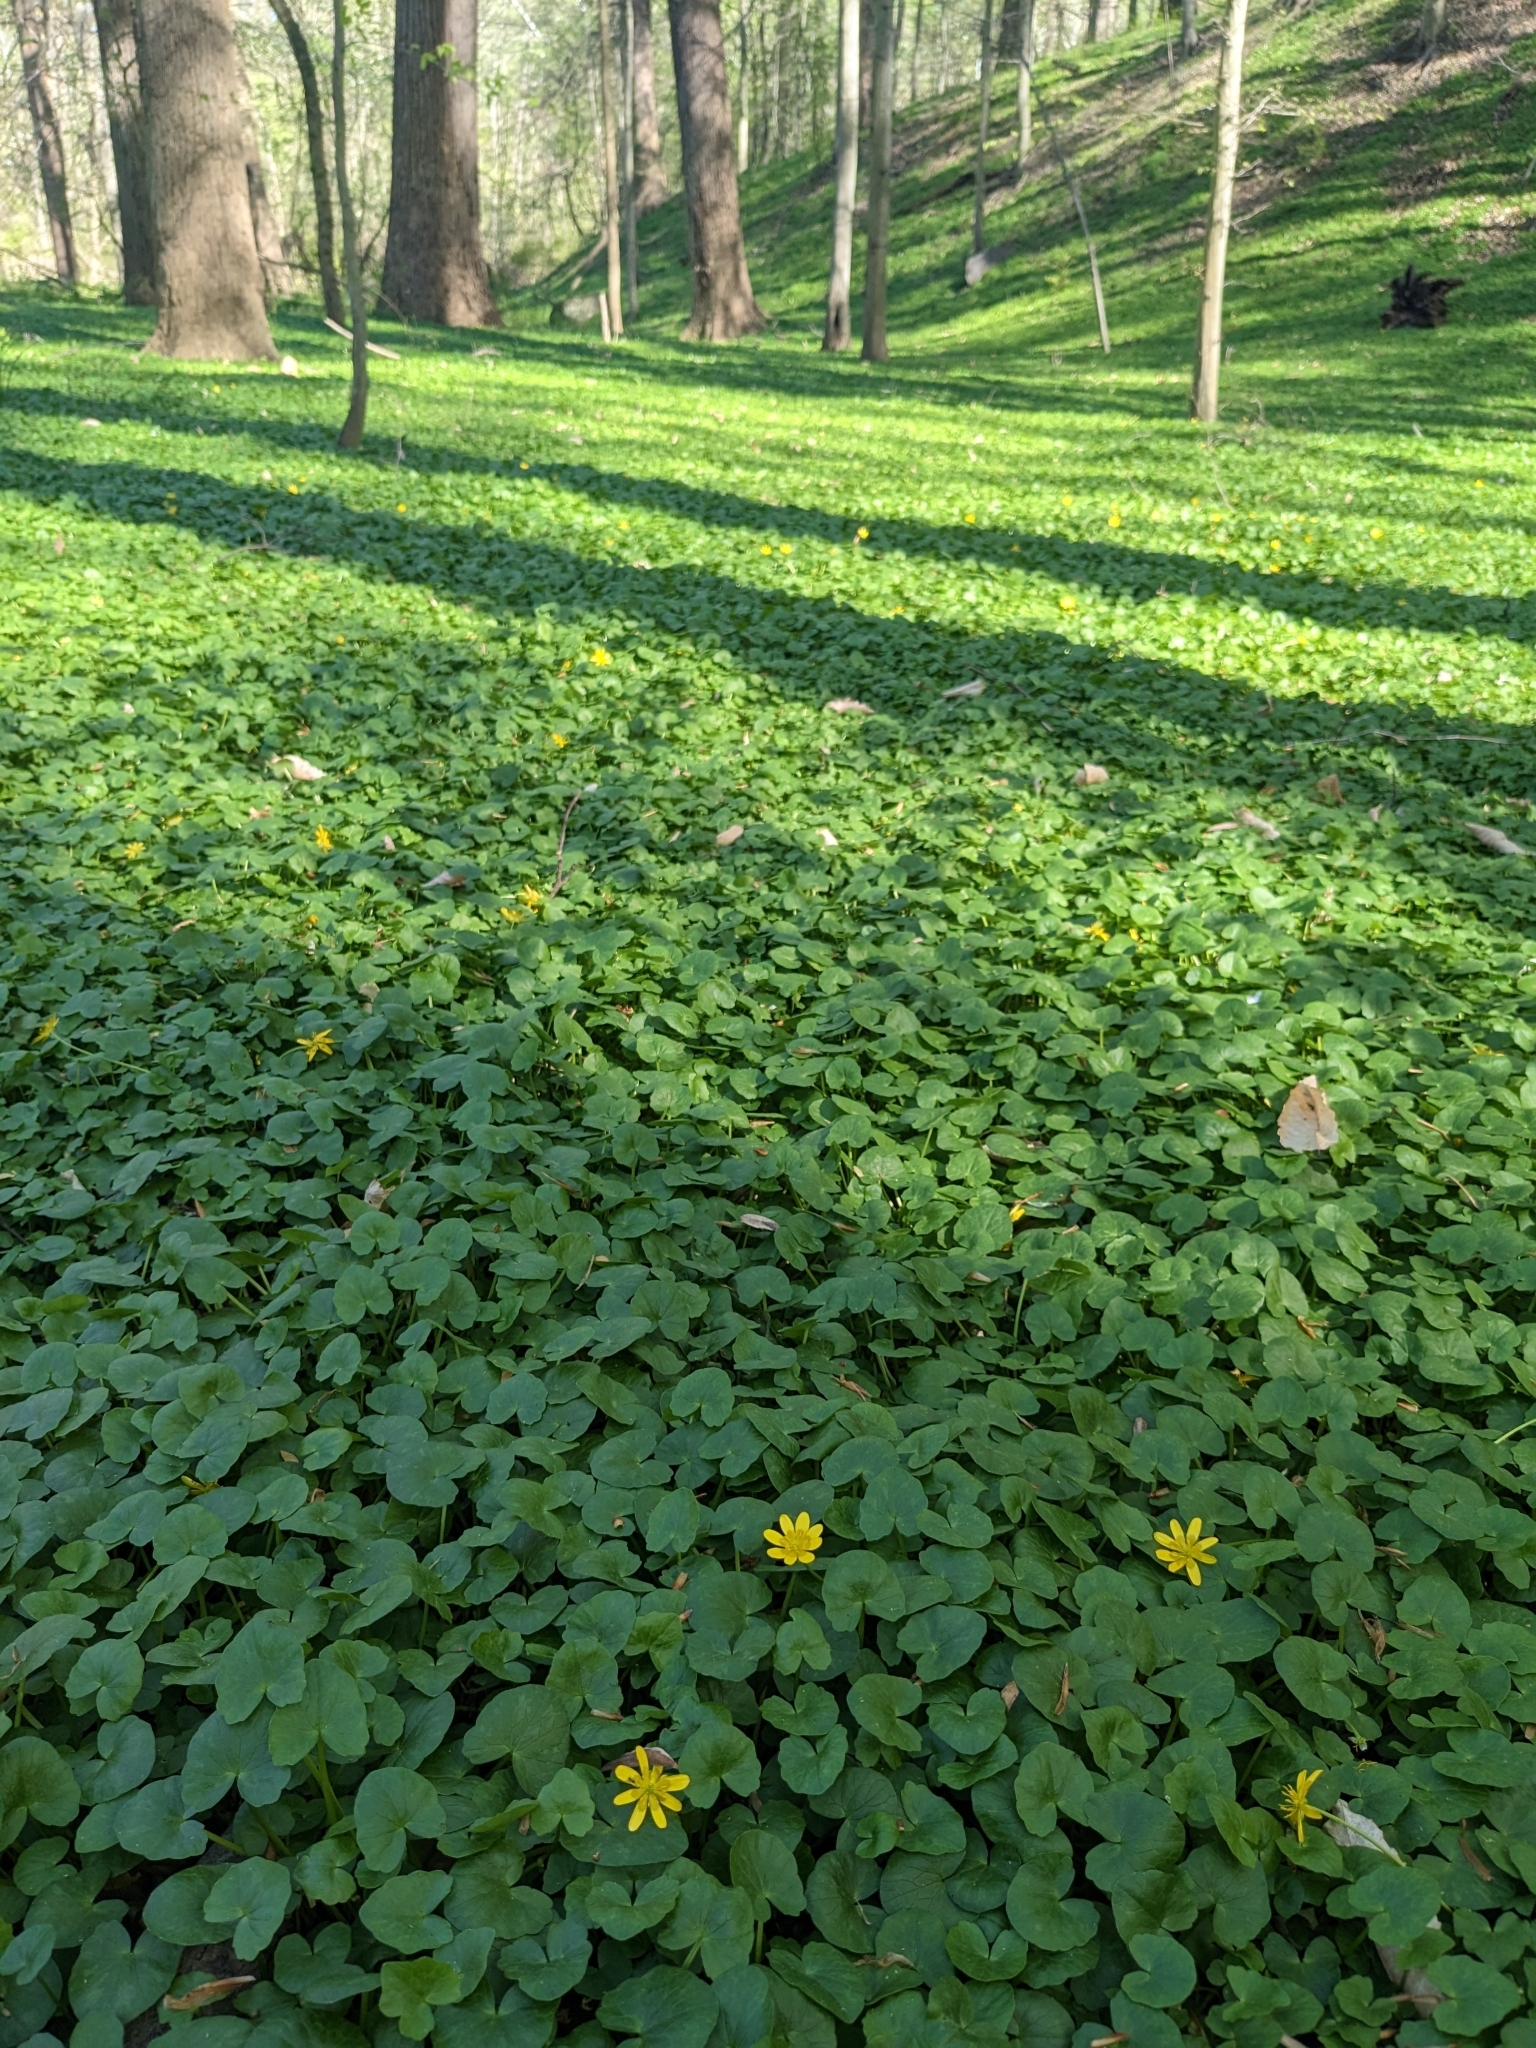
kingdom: Plantae
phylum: Tracheophyta
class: Magnoliopsida
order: Ranunculales
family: Ranunculaceae
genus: Ficaria
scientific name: Ficaria verna
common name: Lesser celandine
